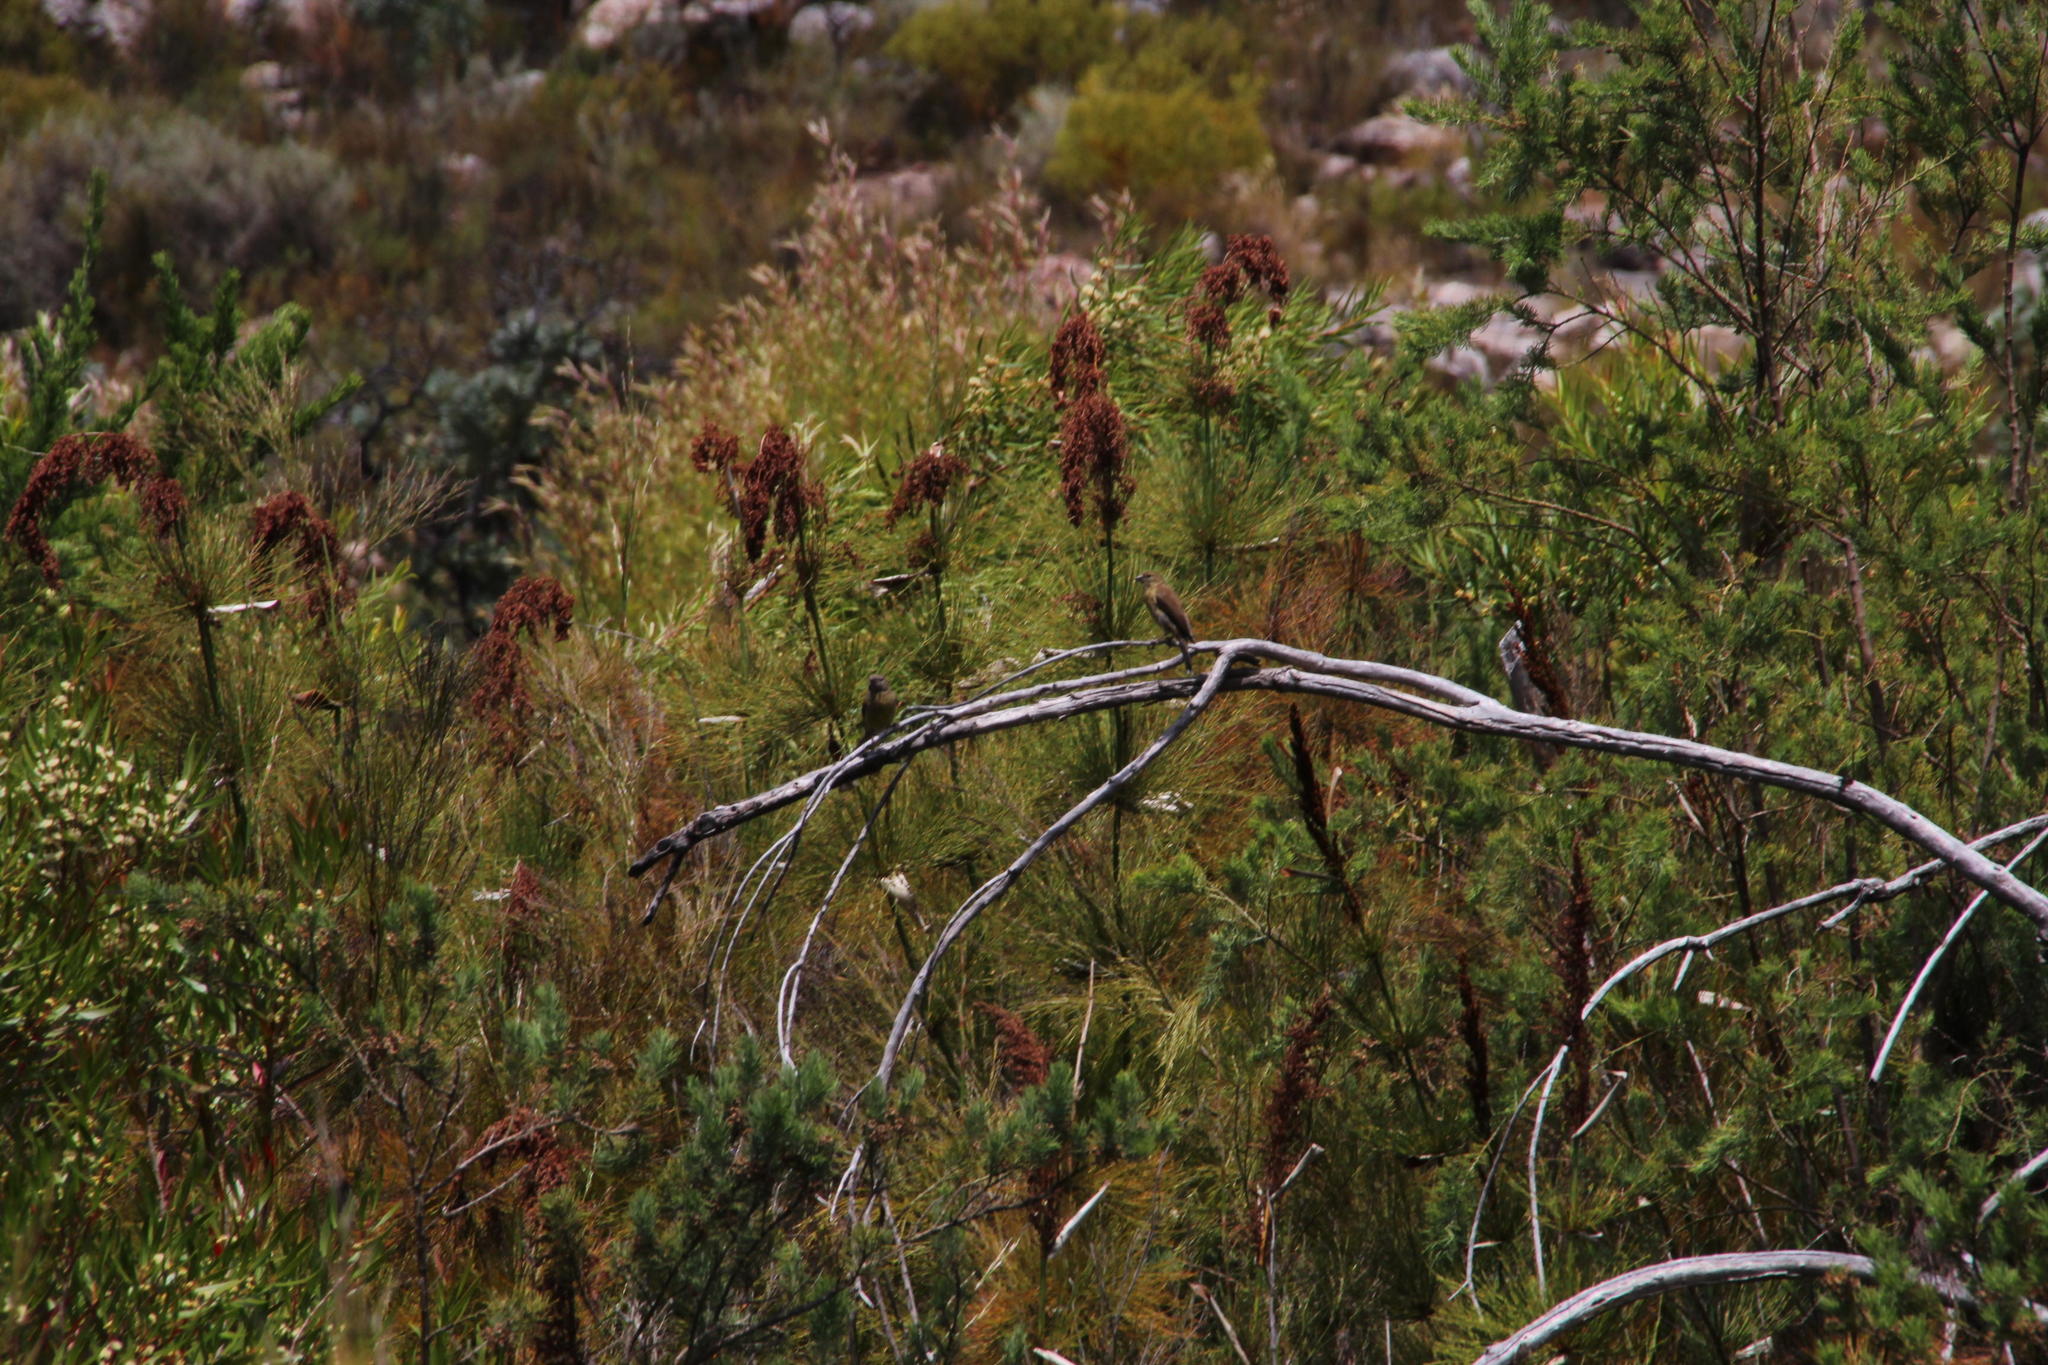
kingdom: Animalia
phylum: Chordata
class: Aves
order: Passeriformes
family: Fringillidae
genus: Crithagra
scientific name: Crithagra totta
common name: Cape siskin
